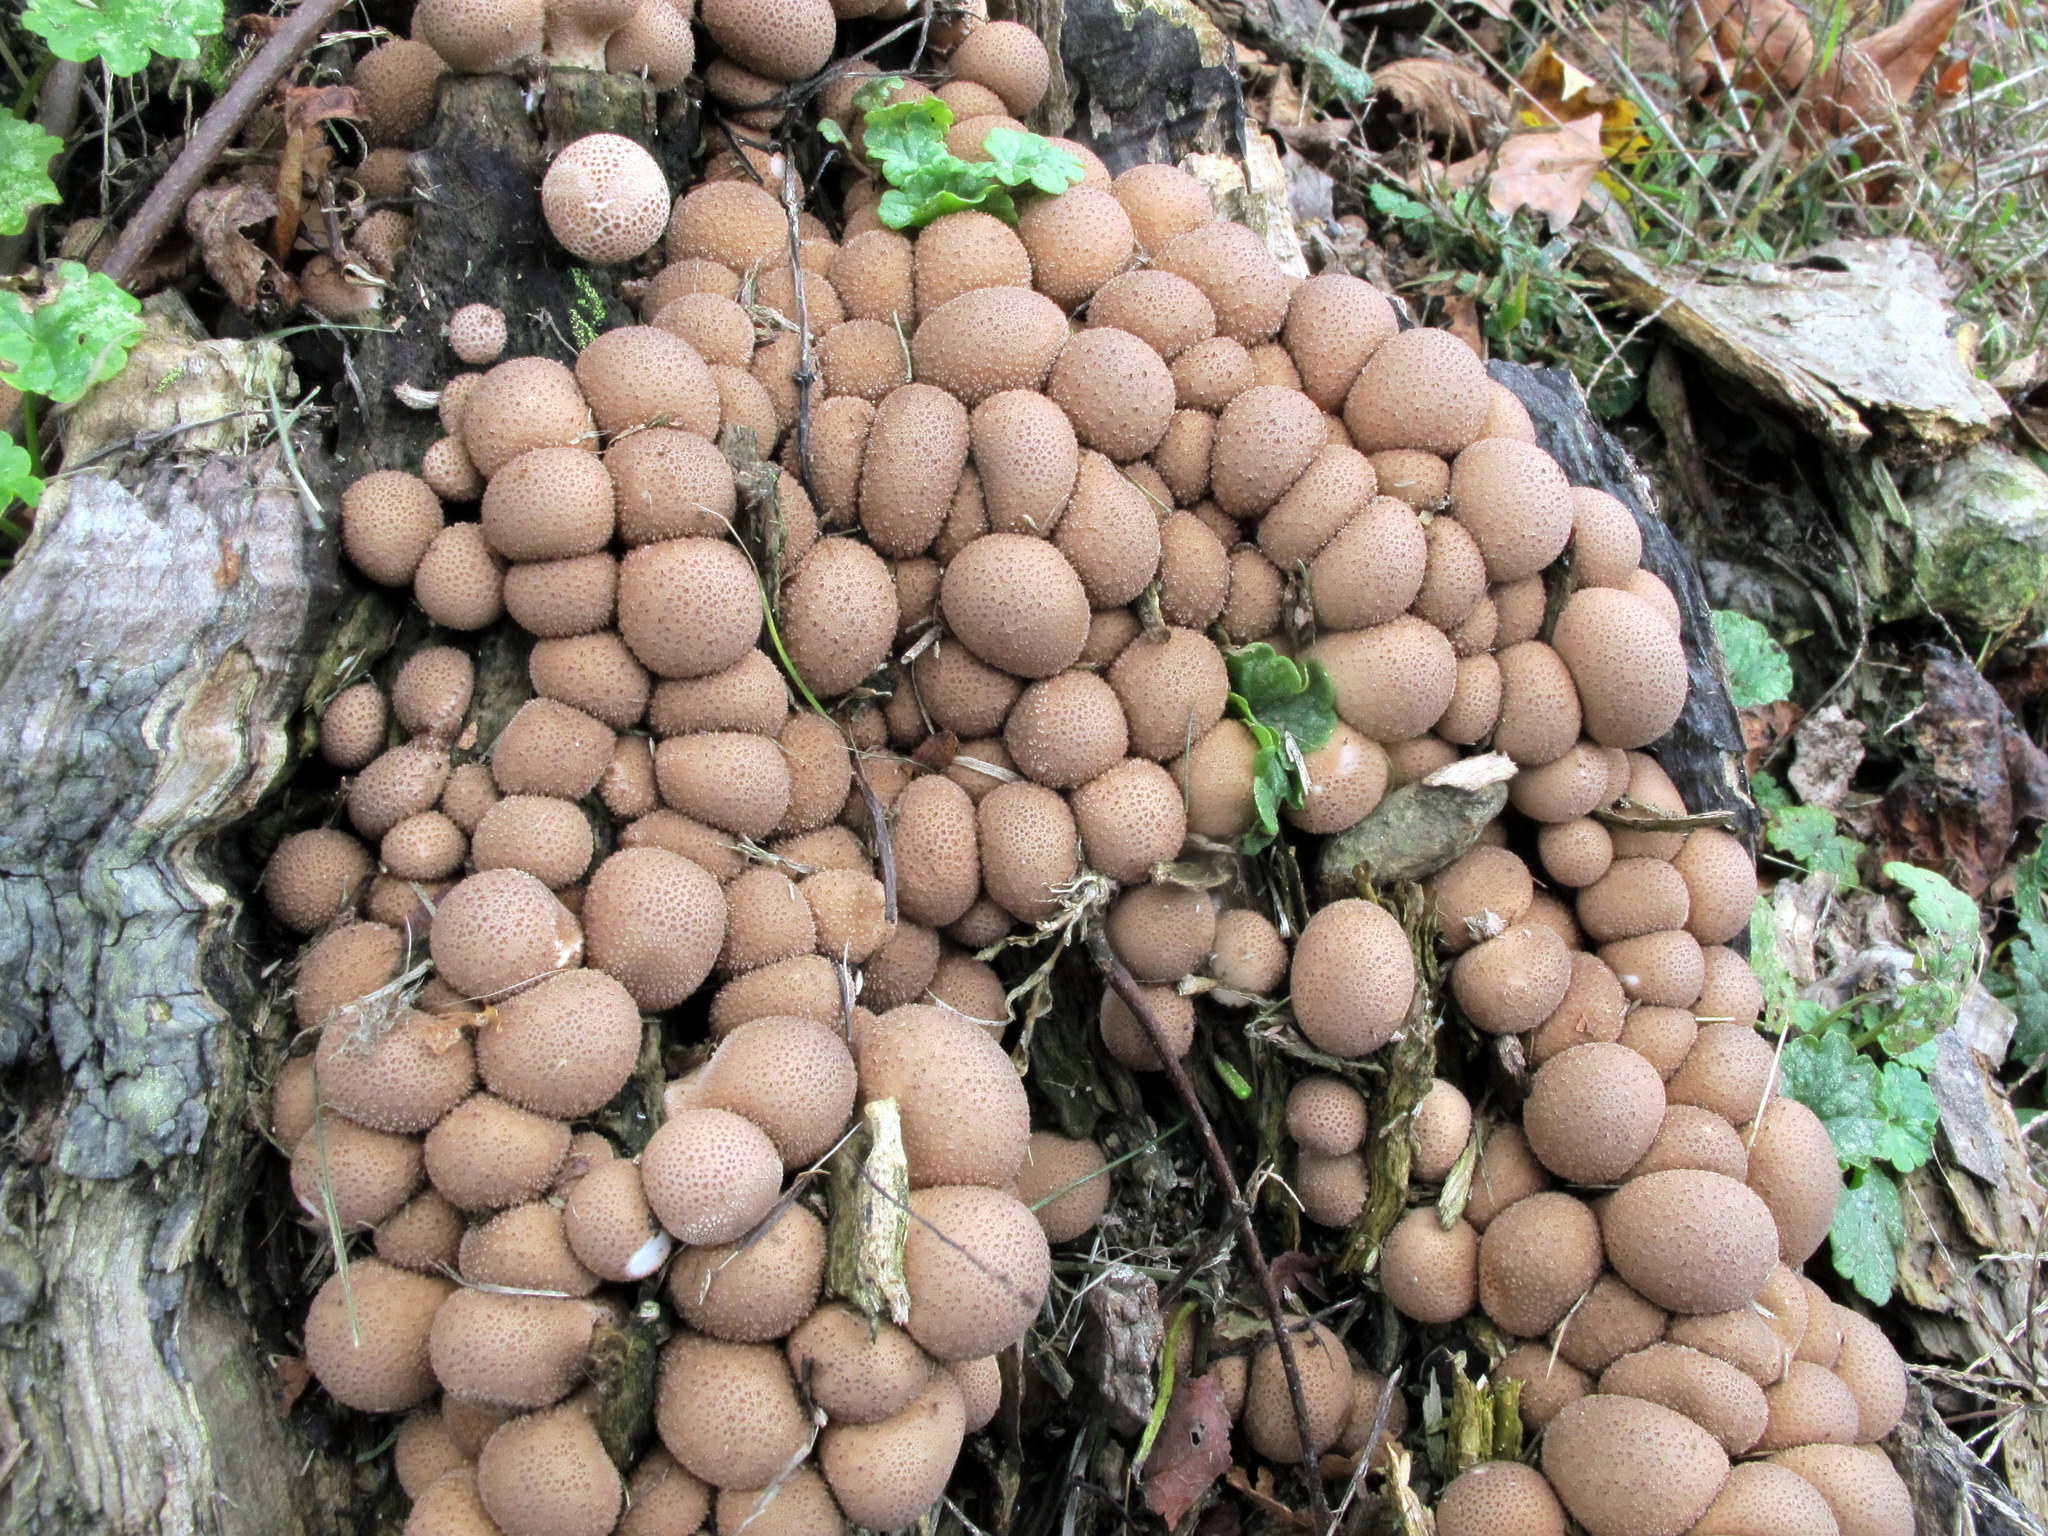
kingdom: Fungi
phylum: Basidiomycota
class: Agaricomycetes
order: Agaricales
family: Lycoperdaceae
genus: Apioperdon
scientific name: Apioperdon pyriforme
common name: Pear-shaped puffball
